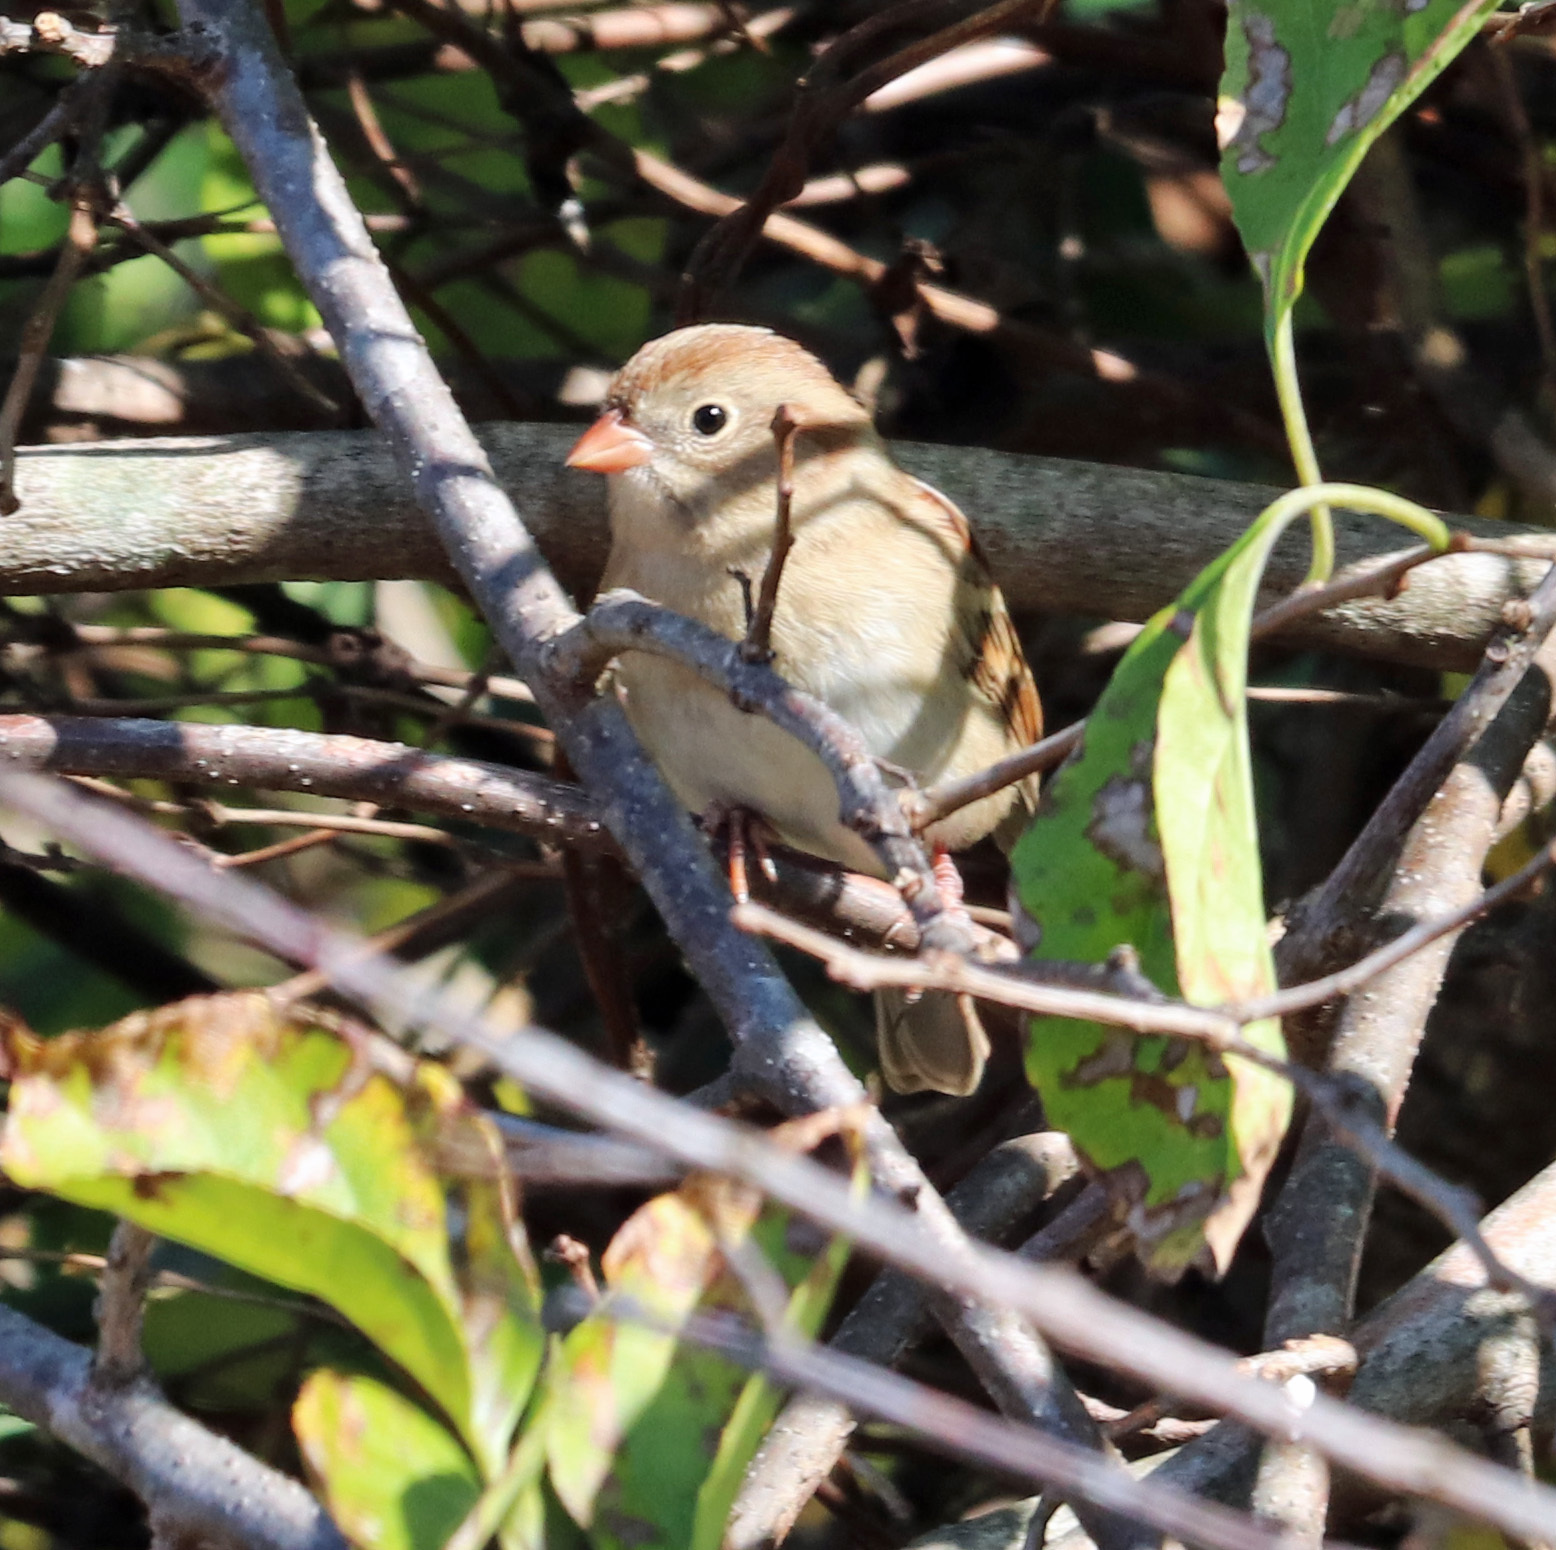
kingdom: Animalia
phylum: Chordata
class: Aves
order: Passeriformes
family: Passerellidae
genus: Spizella
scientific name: Spizella pusilla
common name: Field sparrow
